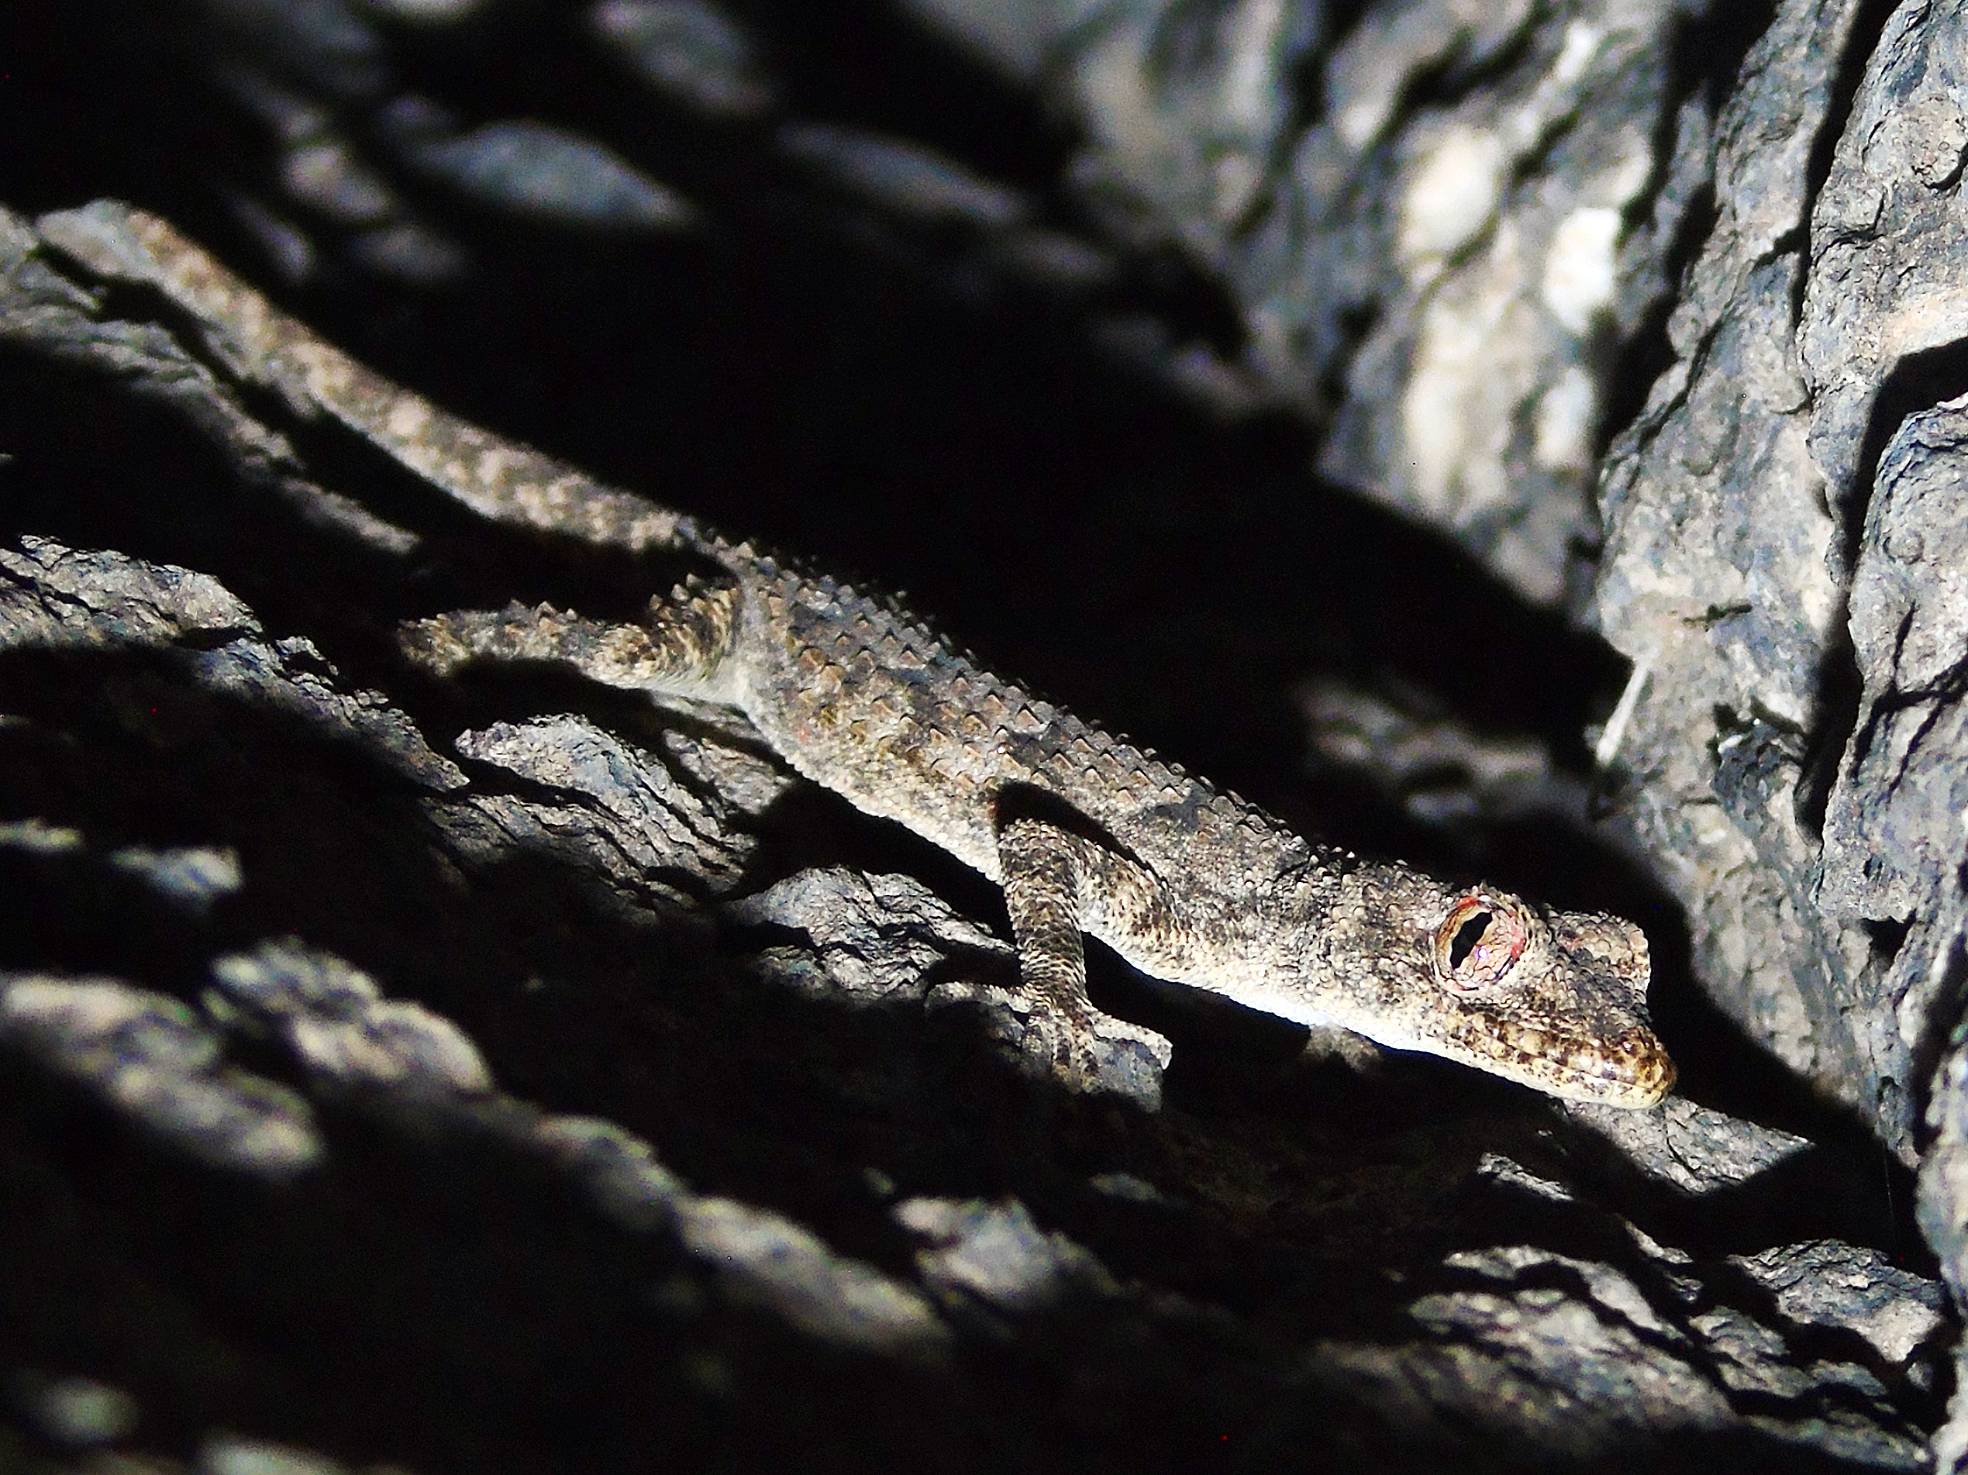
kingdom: Animalia
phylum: Chordata
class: Squamata
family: Gekkonidae
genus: Mediodactylus
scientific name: Mediodactylus heterocercus
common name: Asia minor thin-toed gecko
